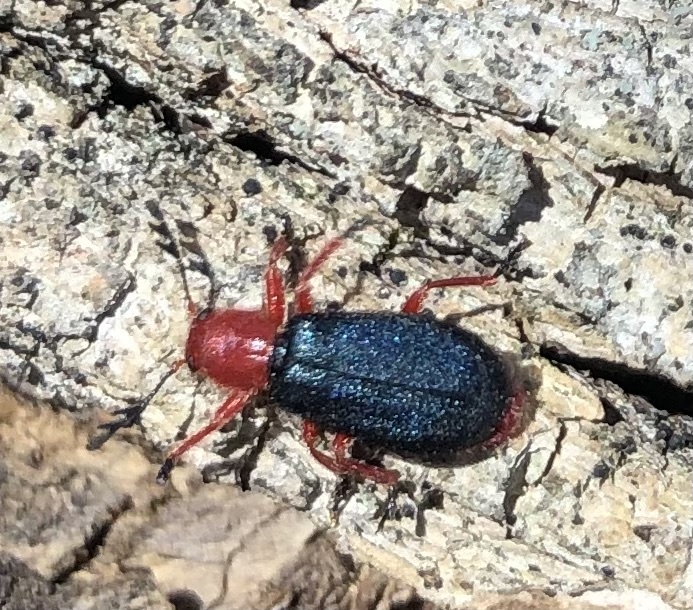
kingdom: Animalia
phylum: Arthropoda
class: Insecta
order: Coleoptera
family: Cleridae
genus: Chariessa
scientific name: Chariessa
